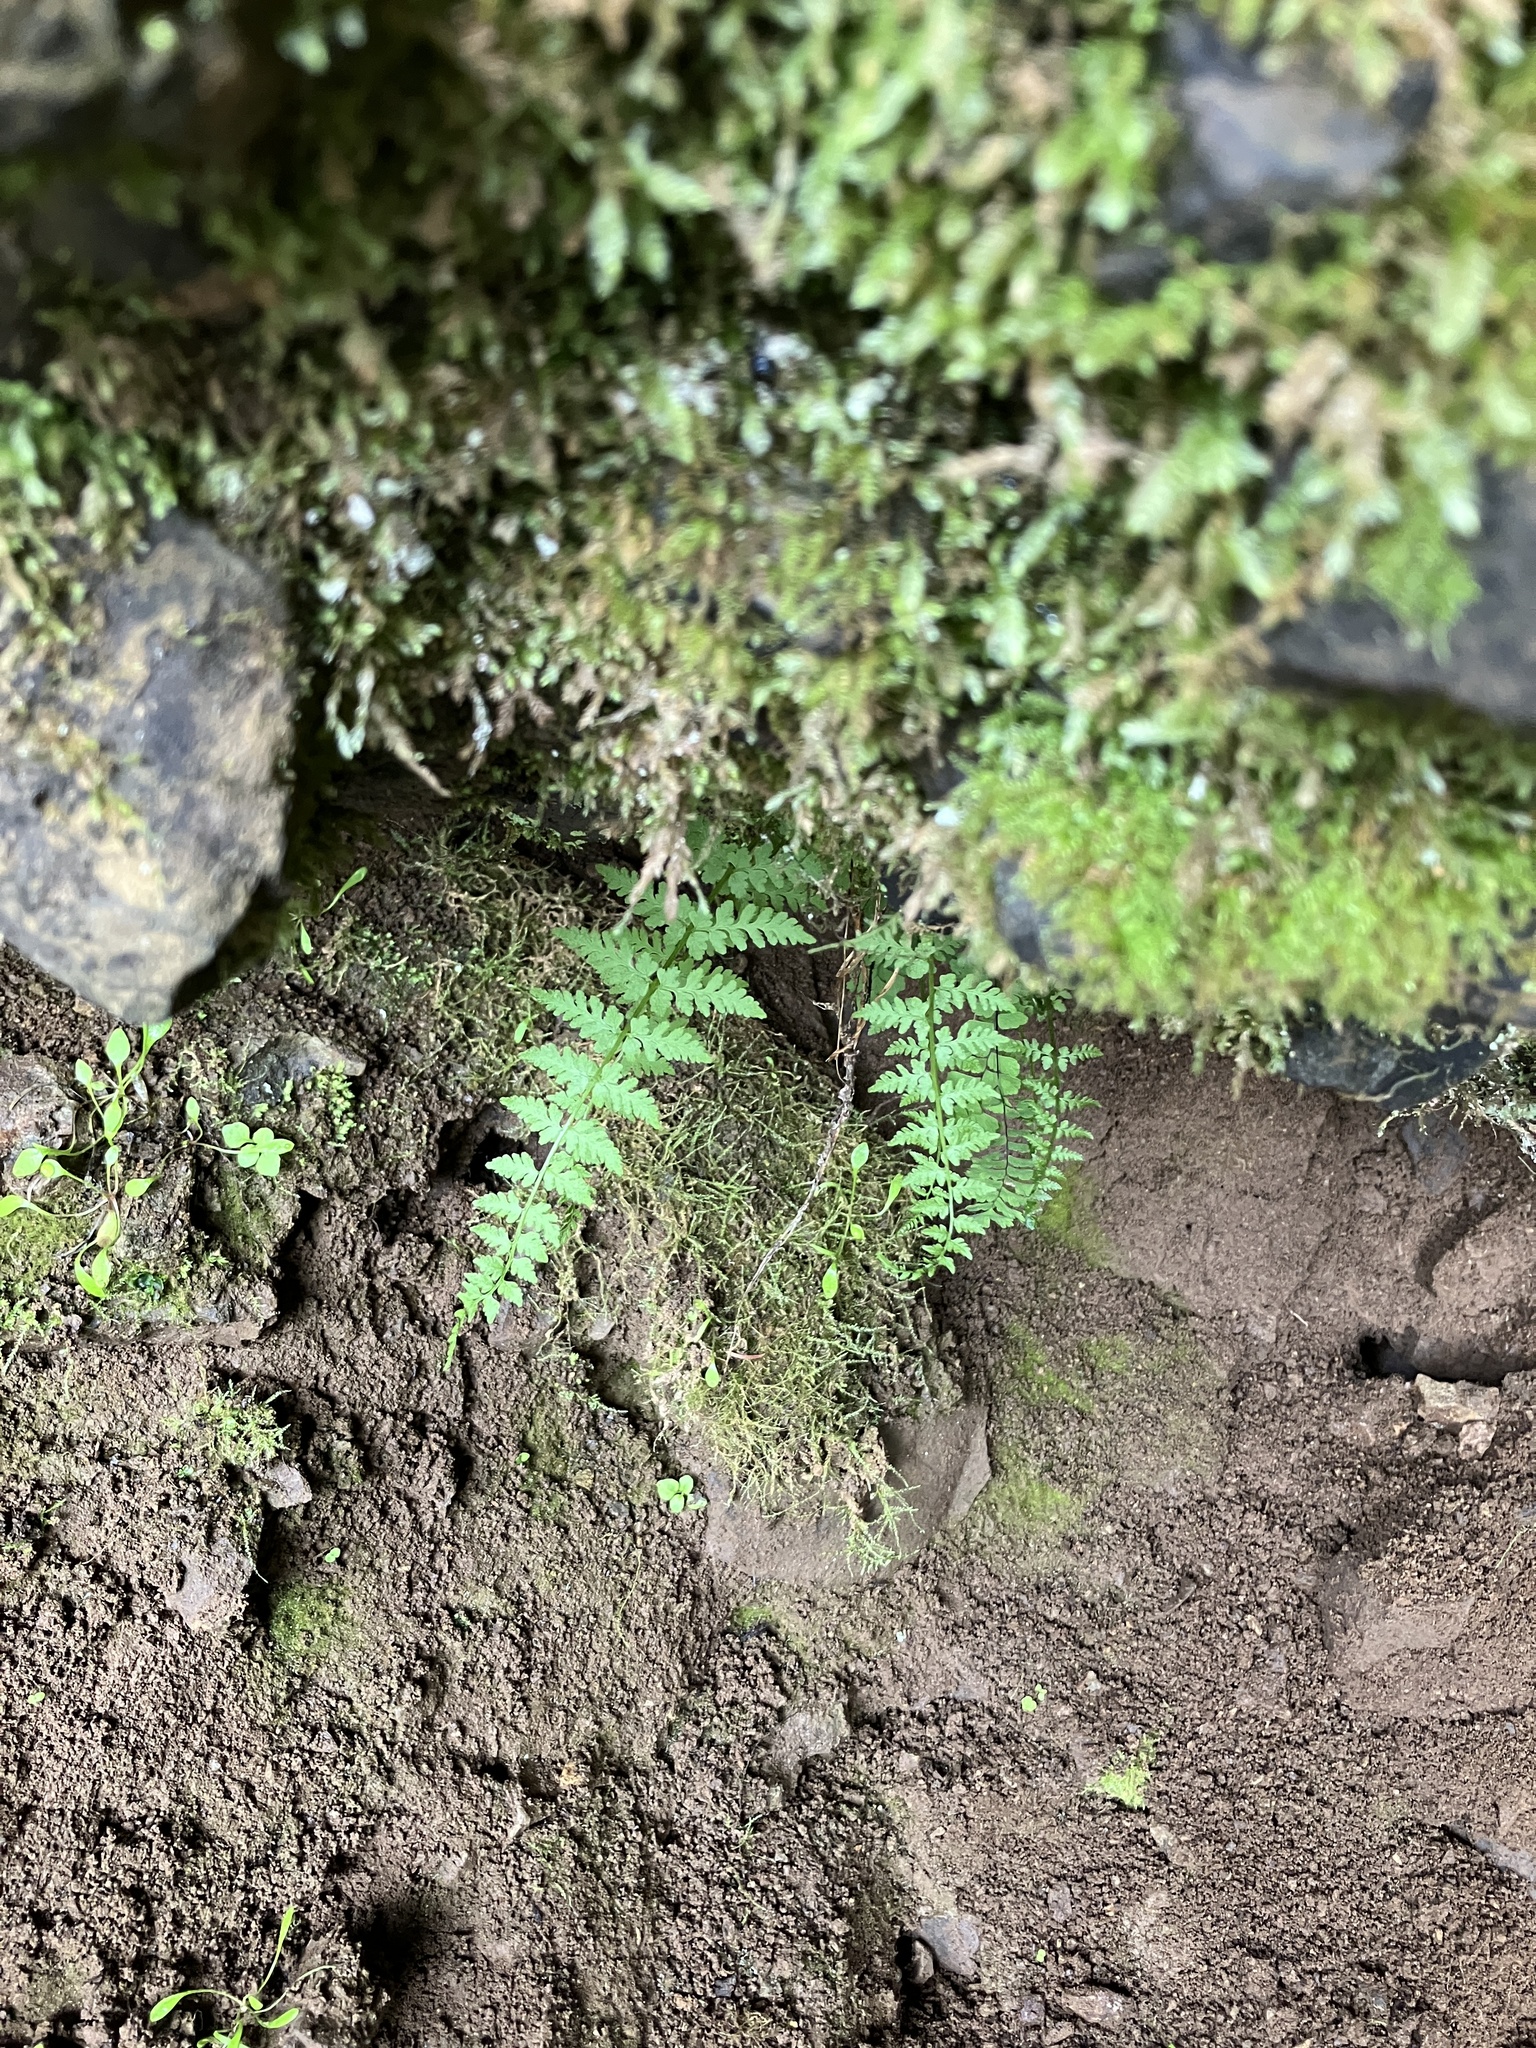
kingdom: Plantae
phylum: Tracheophyta
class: Polypodiopsida
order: Polypodiales
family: Cystopteridaceae
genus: Cystopteris
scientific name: Cystopteris fragilis
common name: Brittle bladder fern
